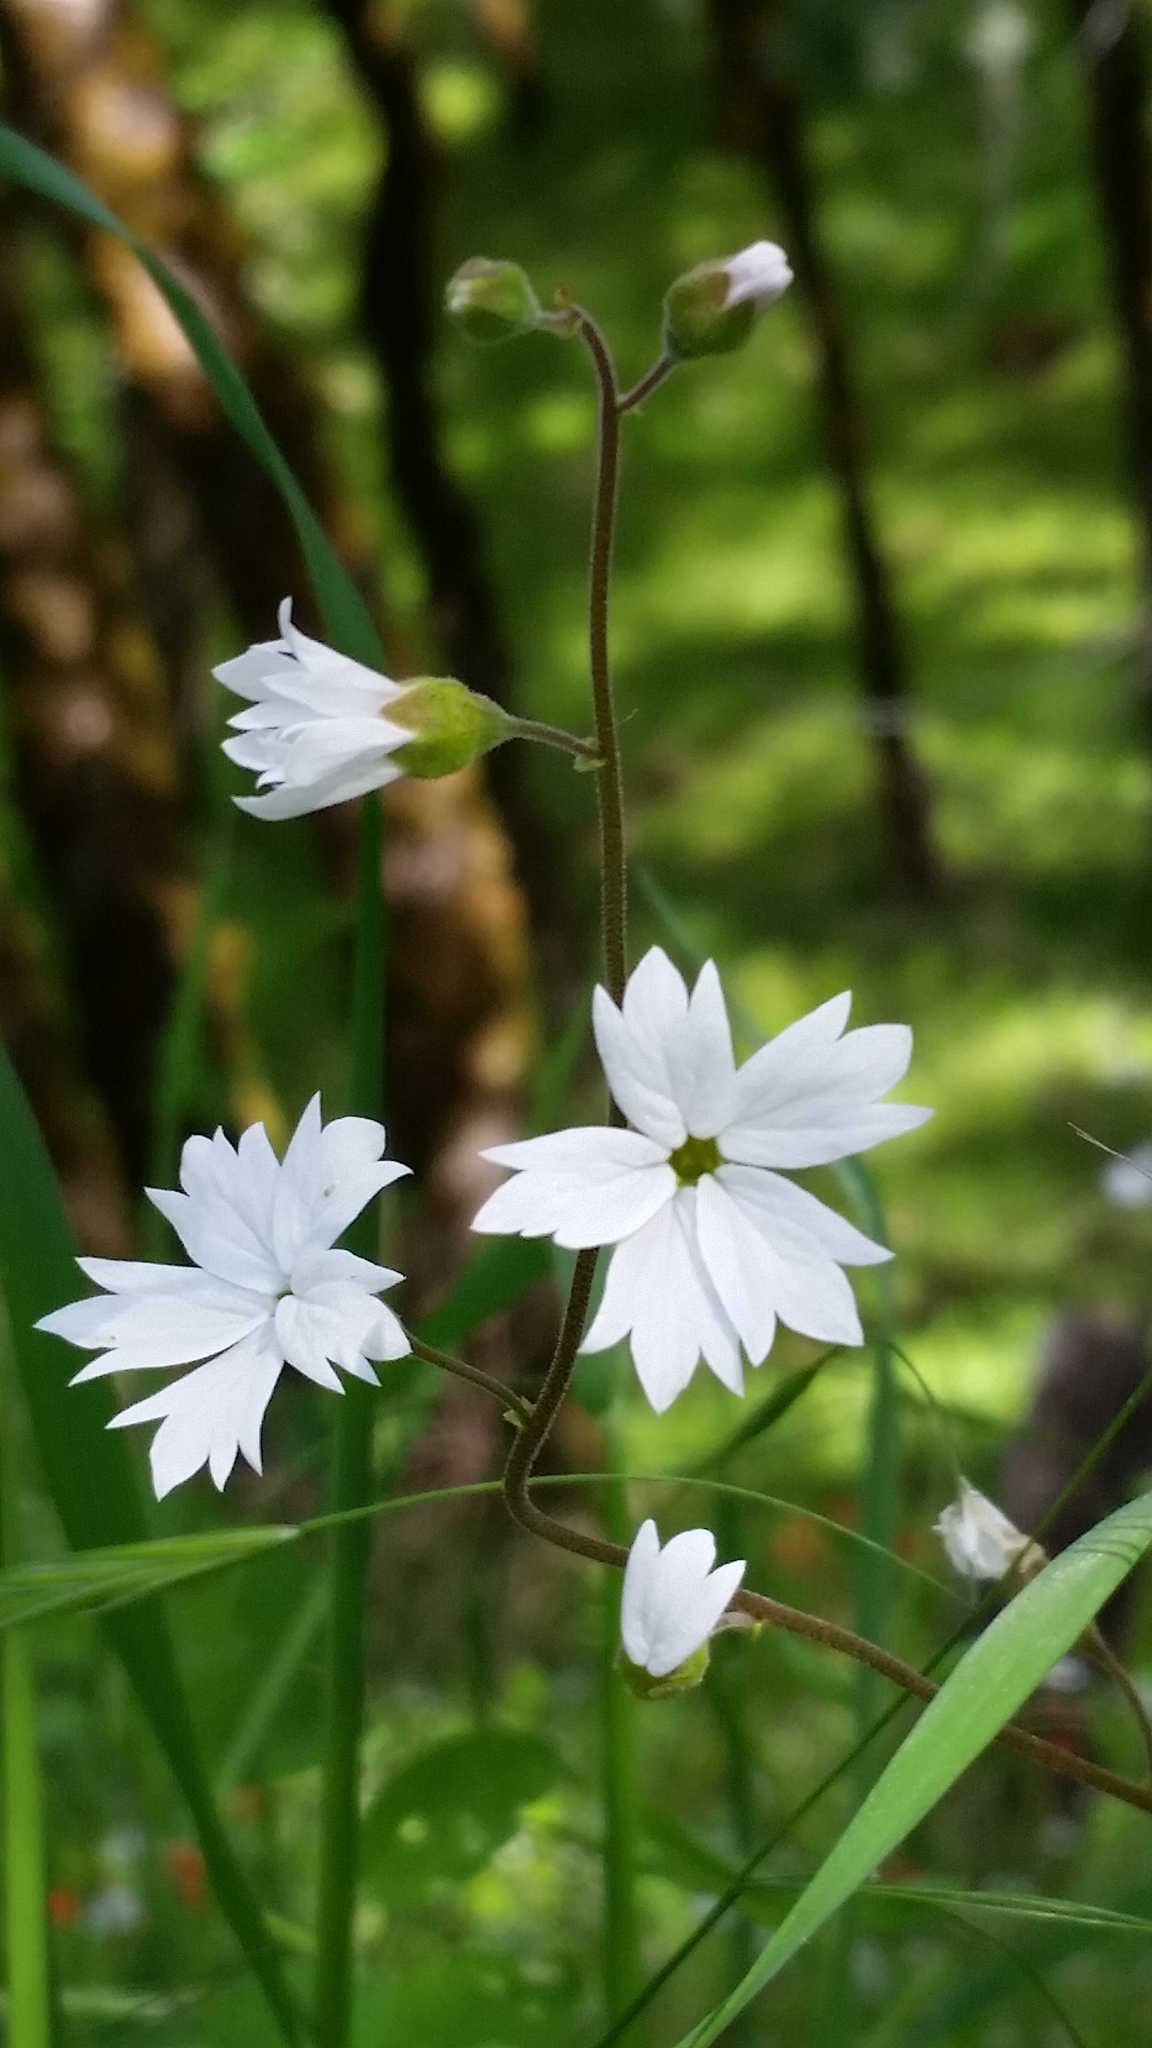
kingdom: Plantae
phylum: Tracheophyta
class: Magnoliopsida
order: Saxifragales
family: Saxifragaceae
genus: Lithophragma
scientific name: Lithophragma affine
